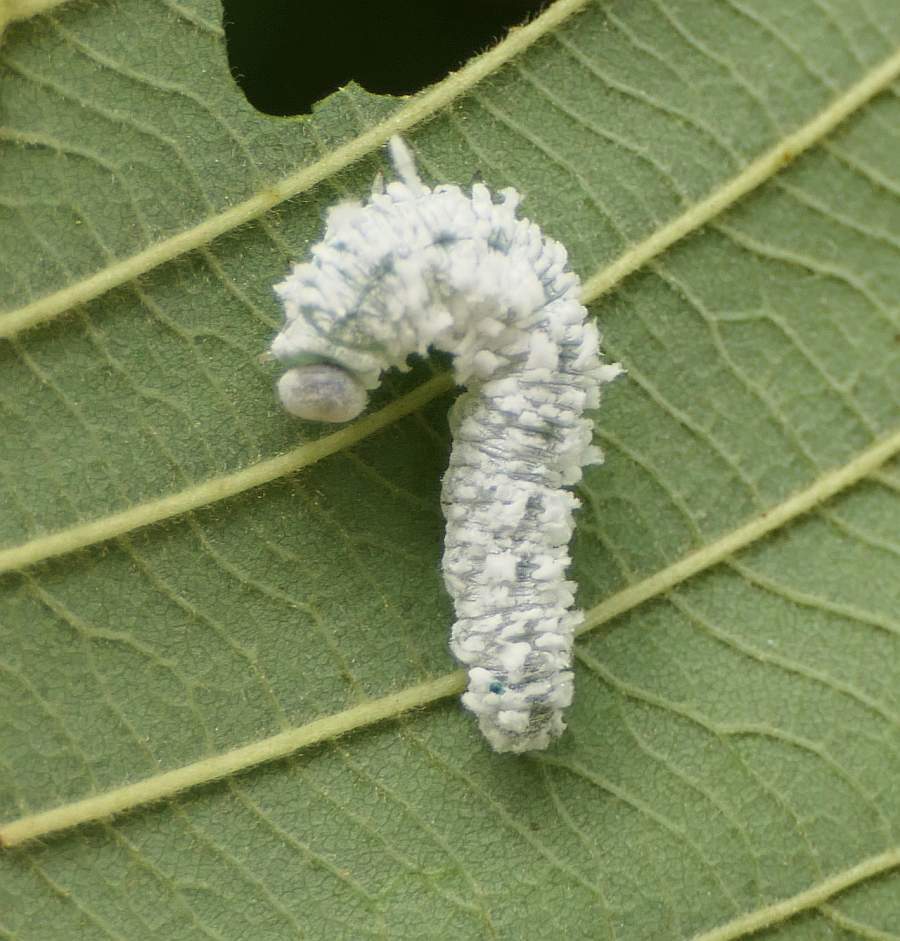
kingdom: Animalia
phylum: Arthropoda
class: Insecta
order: Hymenoptera
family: Tenthredinidae
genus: Eriocampa
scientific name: Eriocampa ovata
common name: Alder wooly sawfly
